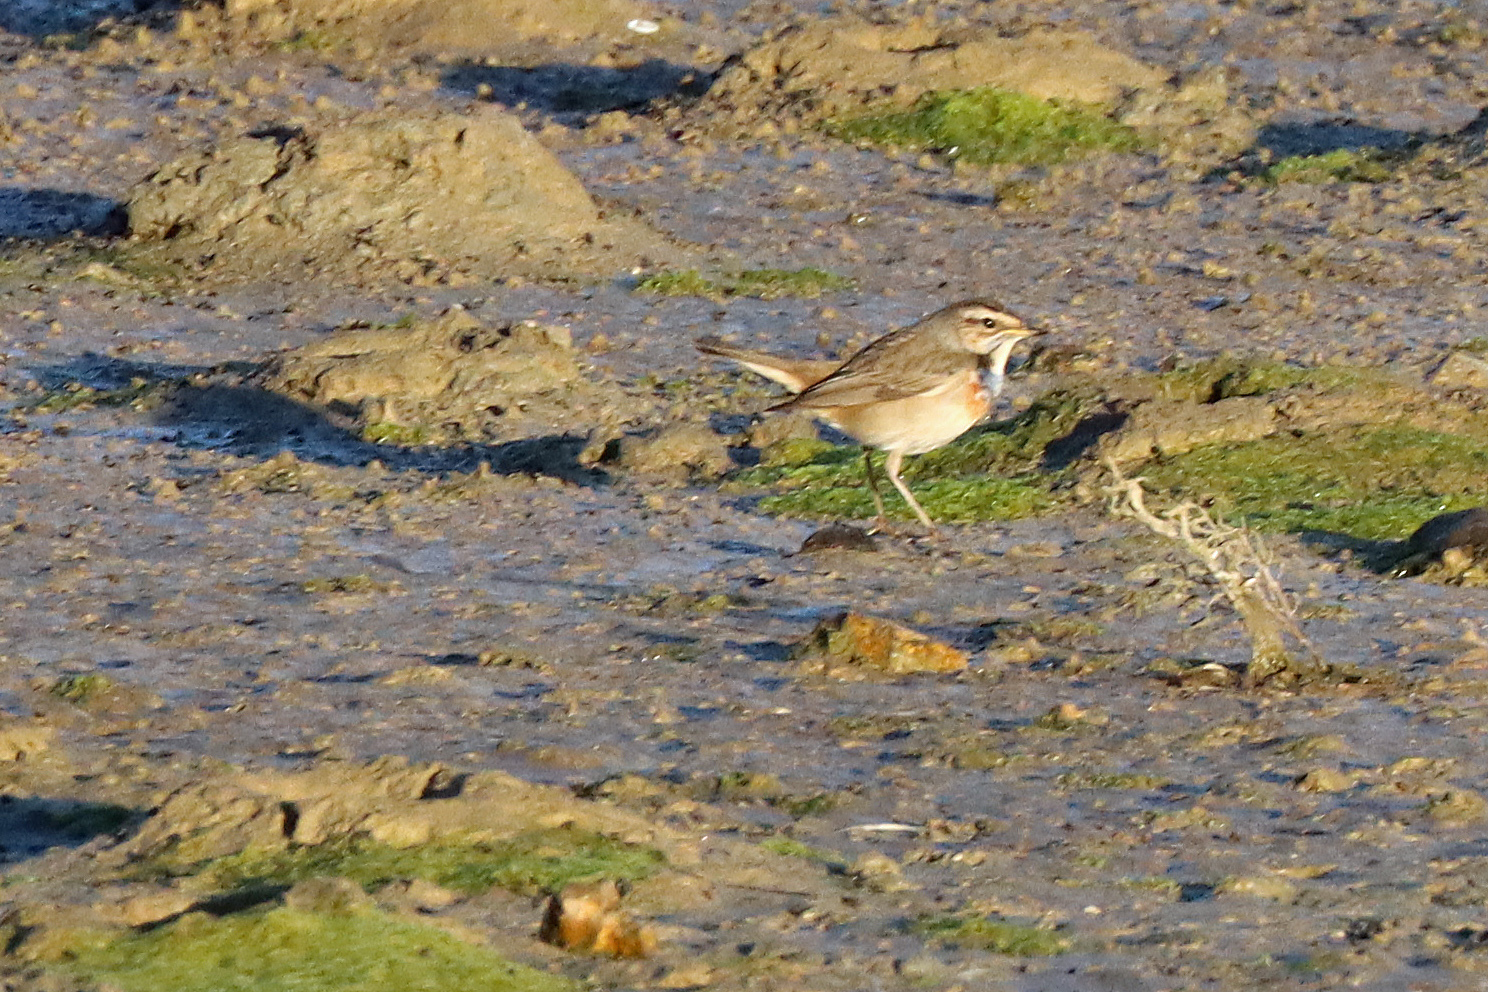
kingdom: Animalia
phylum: Chordata
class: Aves
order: Passeriformes
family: Muscicapidae
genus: Luscinia
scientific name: Luscinia svecica
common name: Bluethroat
